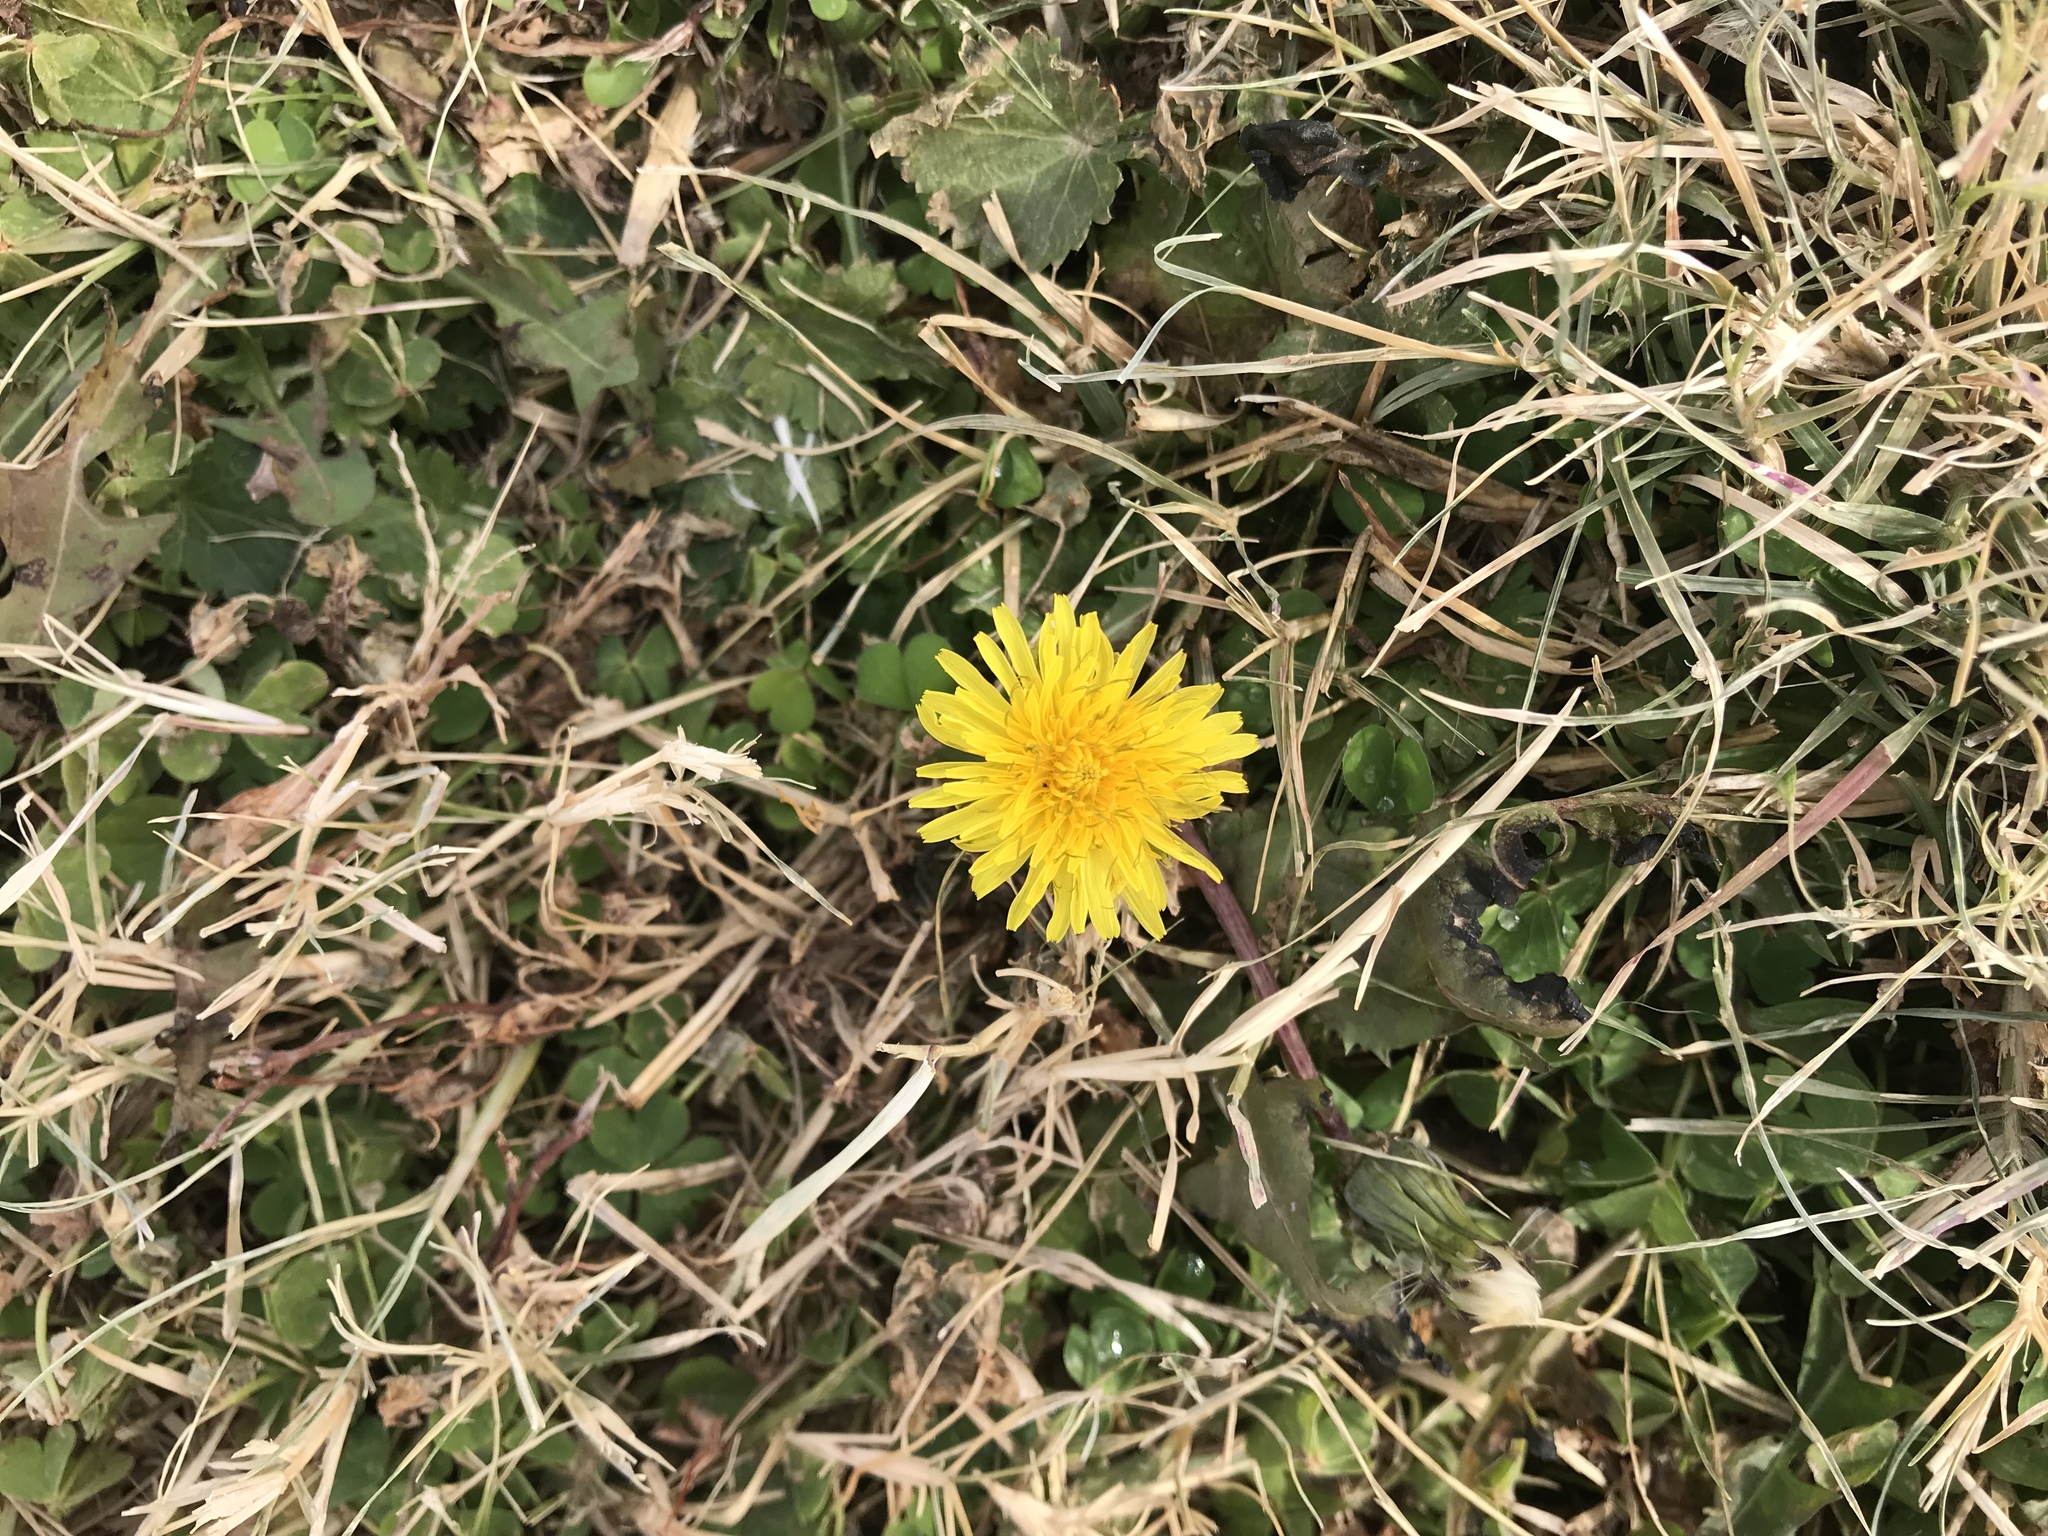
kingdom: Plantae
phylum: Tracheophyta
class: Magnoliopsida
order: Asterales
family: Asteraceae
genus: Taraxacum
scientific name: Taraxacum officinale
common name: Common dandelion
